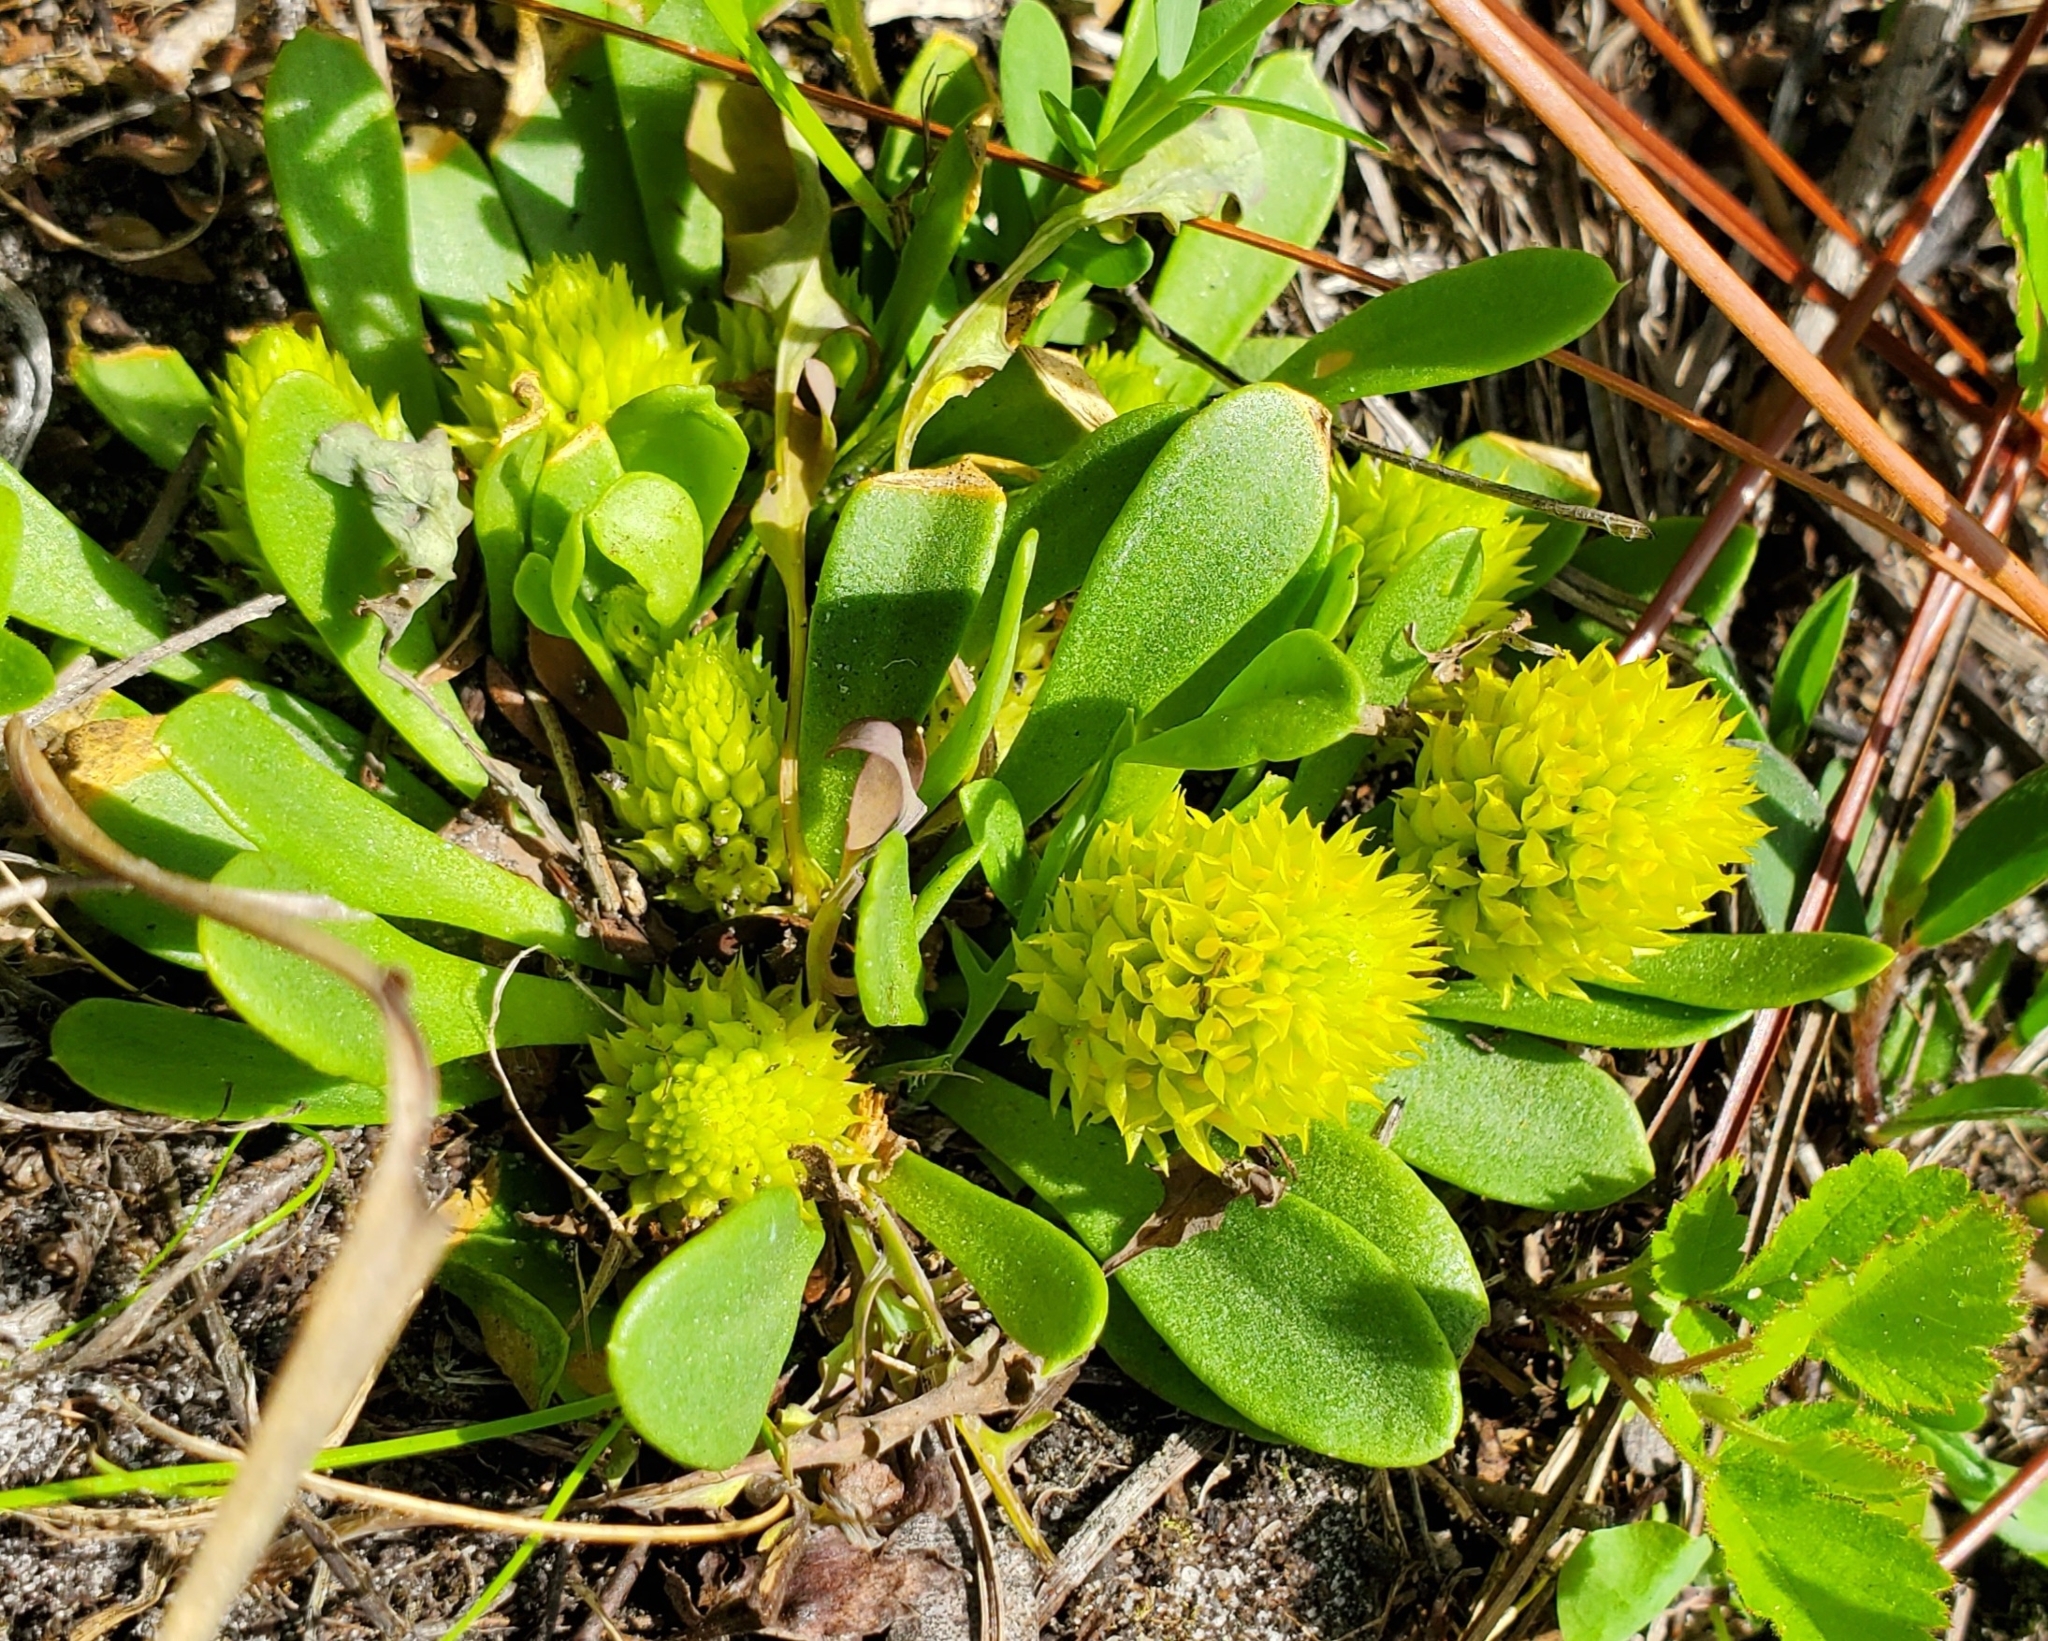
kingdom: Plantae
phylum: Tracheophyta
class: Magnoliopsida
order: Fabales
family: Polygalaceae
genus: Polygala
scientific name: Polygala nana
